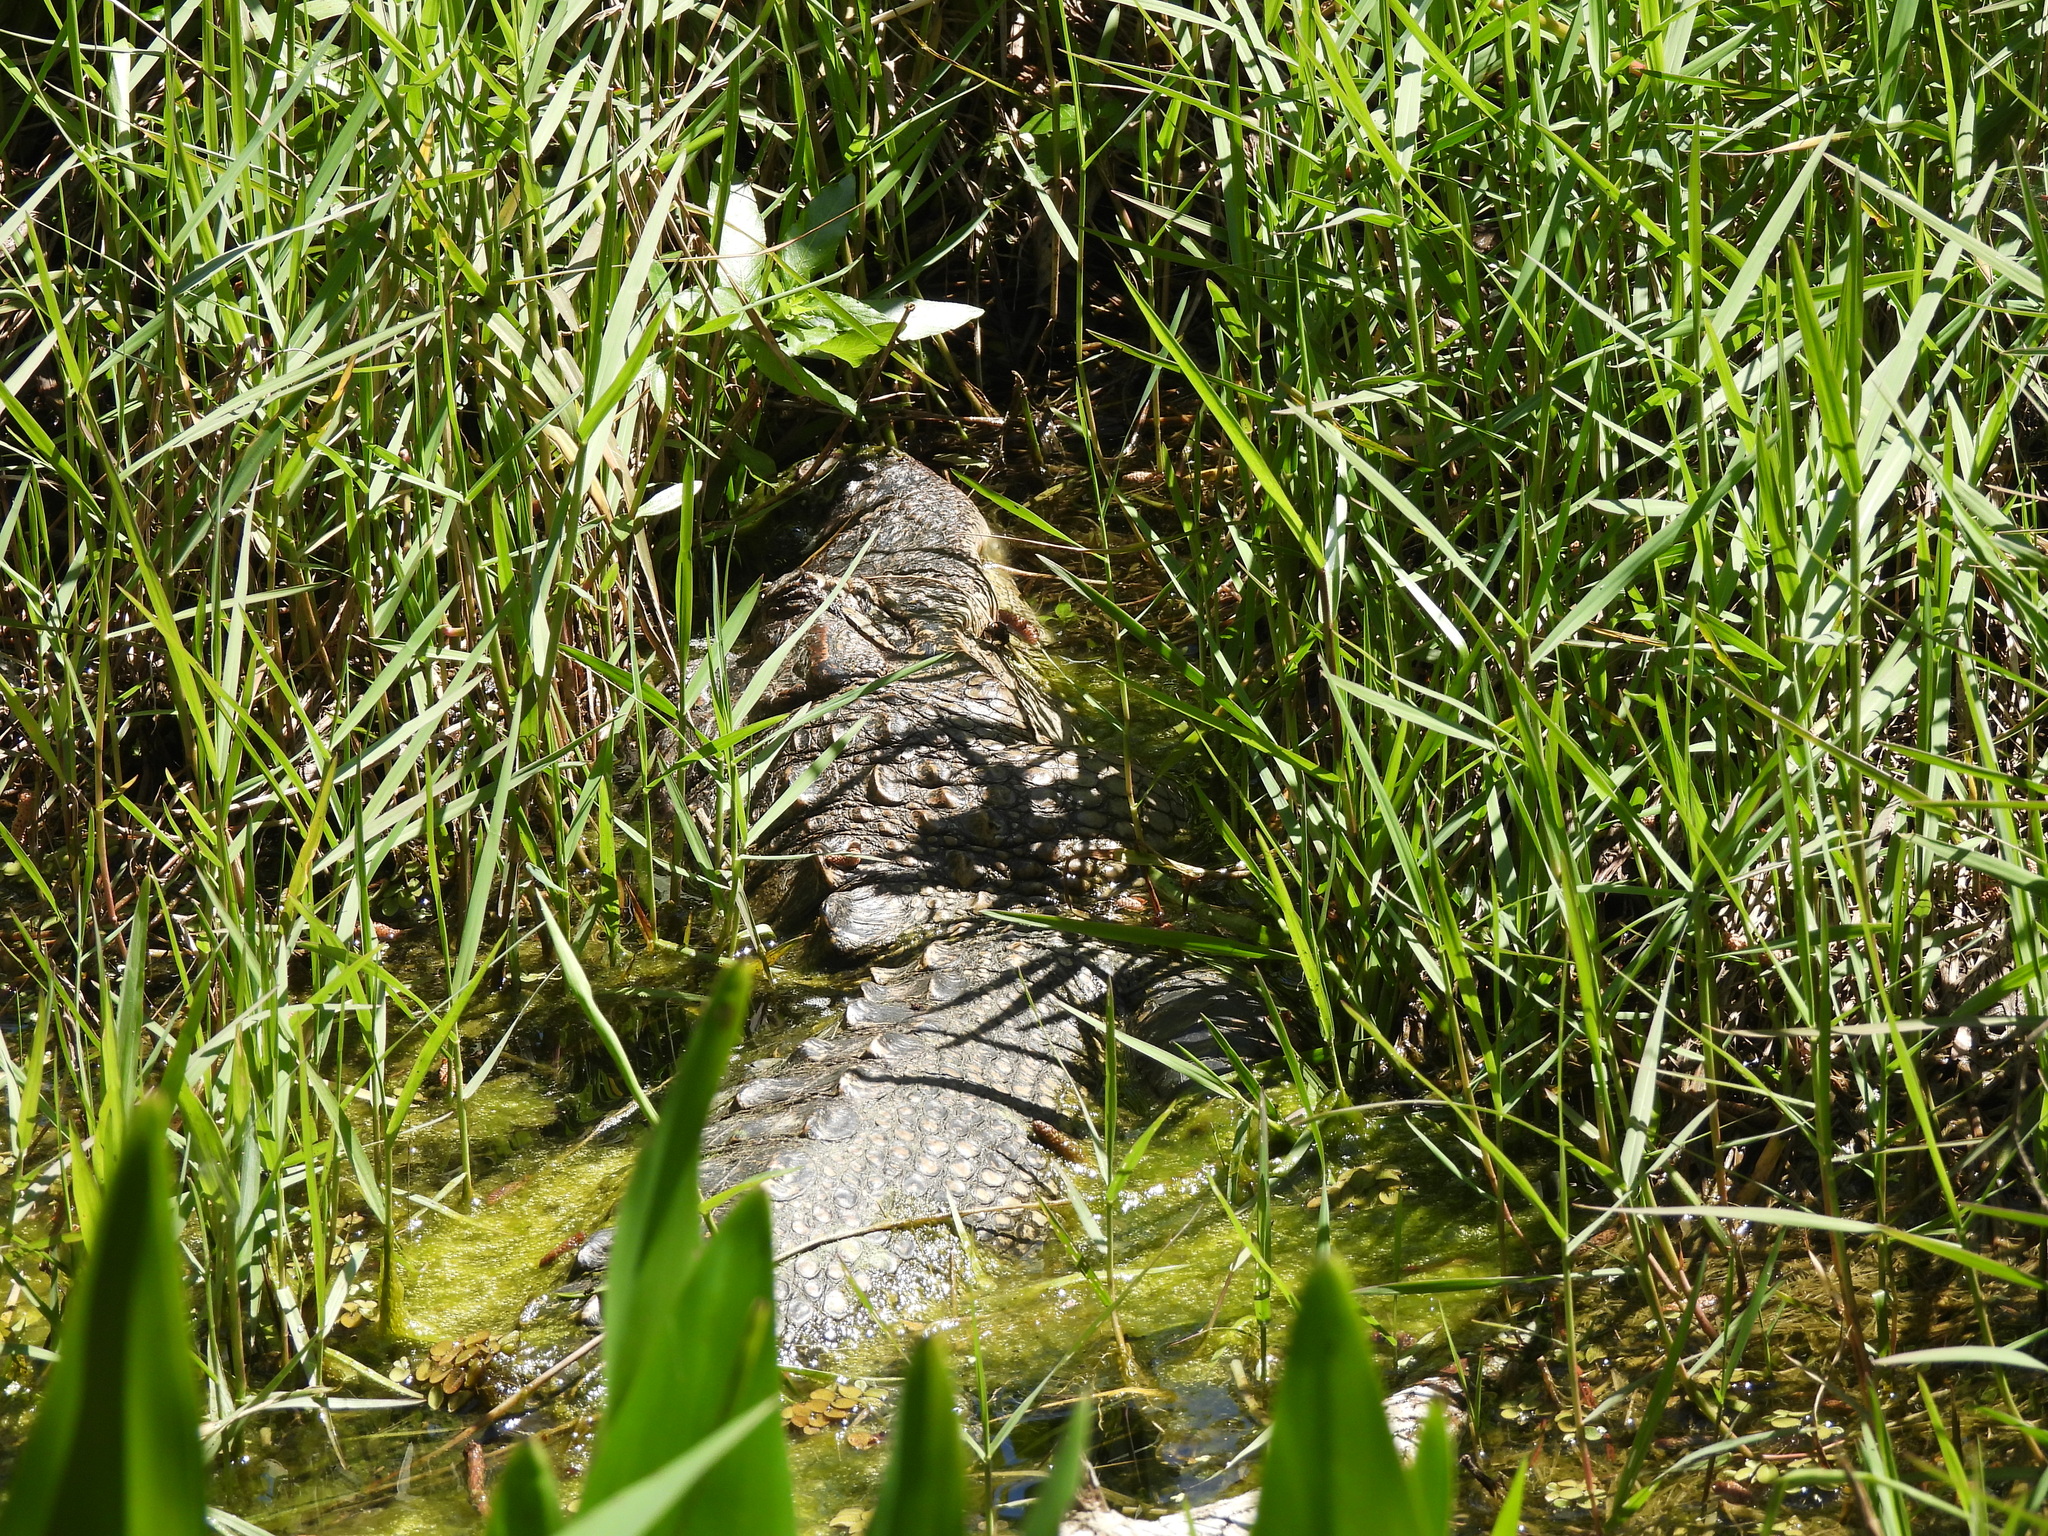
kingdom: Animalia
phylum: Chordata
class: Crocodylia
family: Alligatoridae
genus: Alligator
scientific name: Alligator mississippiensis
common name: American alligator
